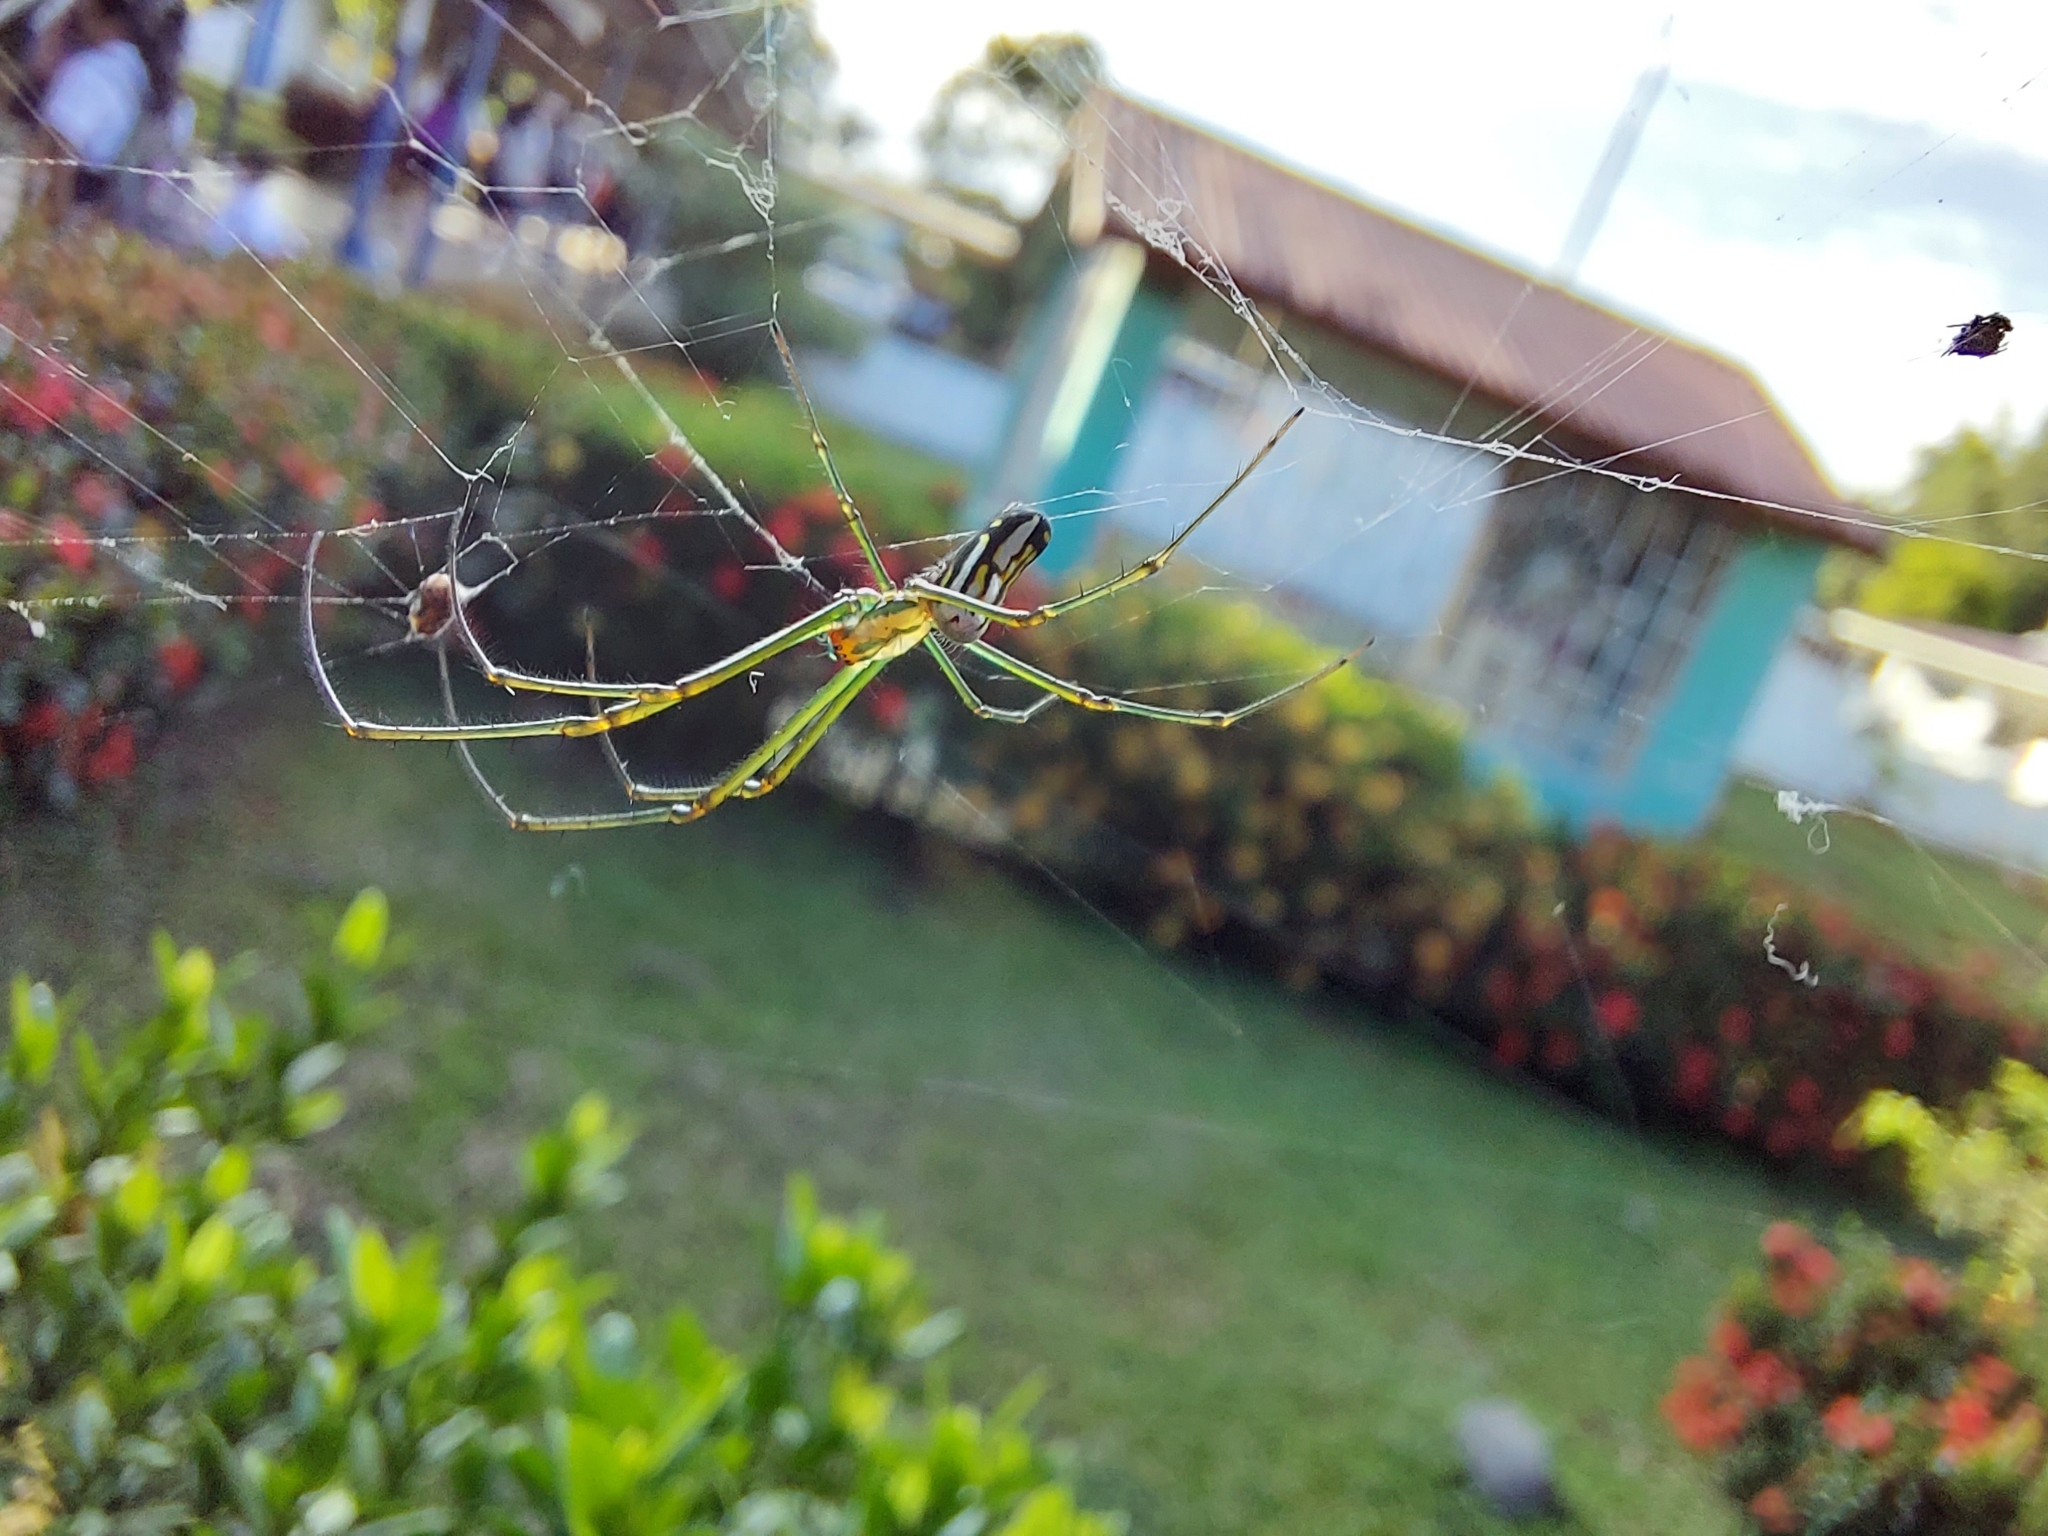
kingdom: Animalia
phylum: Arthropoda
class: Arachnida
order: Araneae
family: Tetragnathidae
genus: Leucauge
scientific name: Leucauge argyra
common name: Longjawed orb weavers
